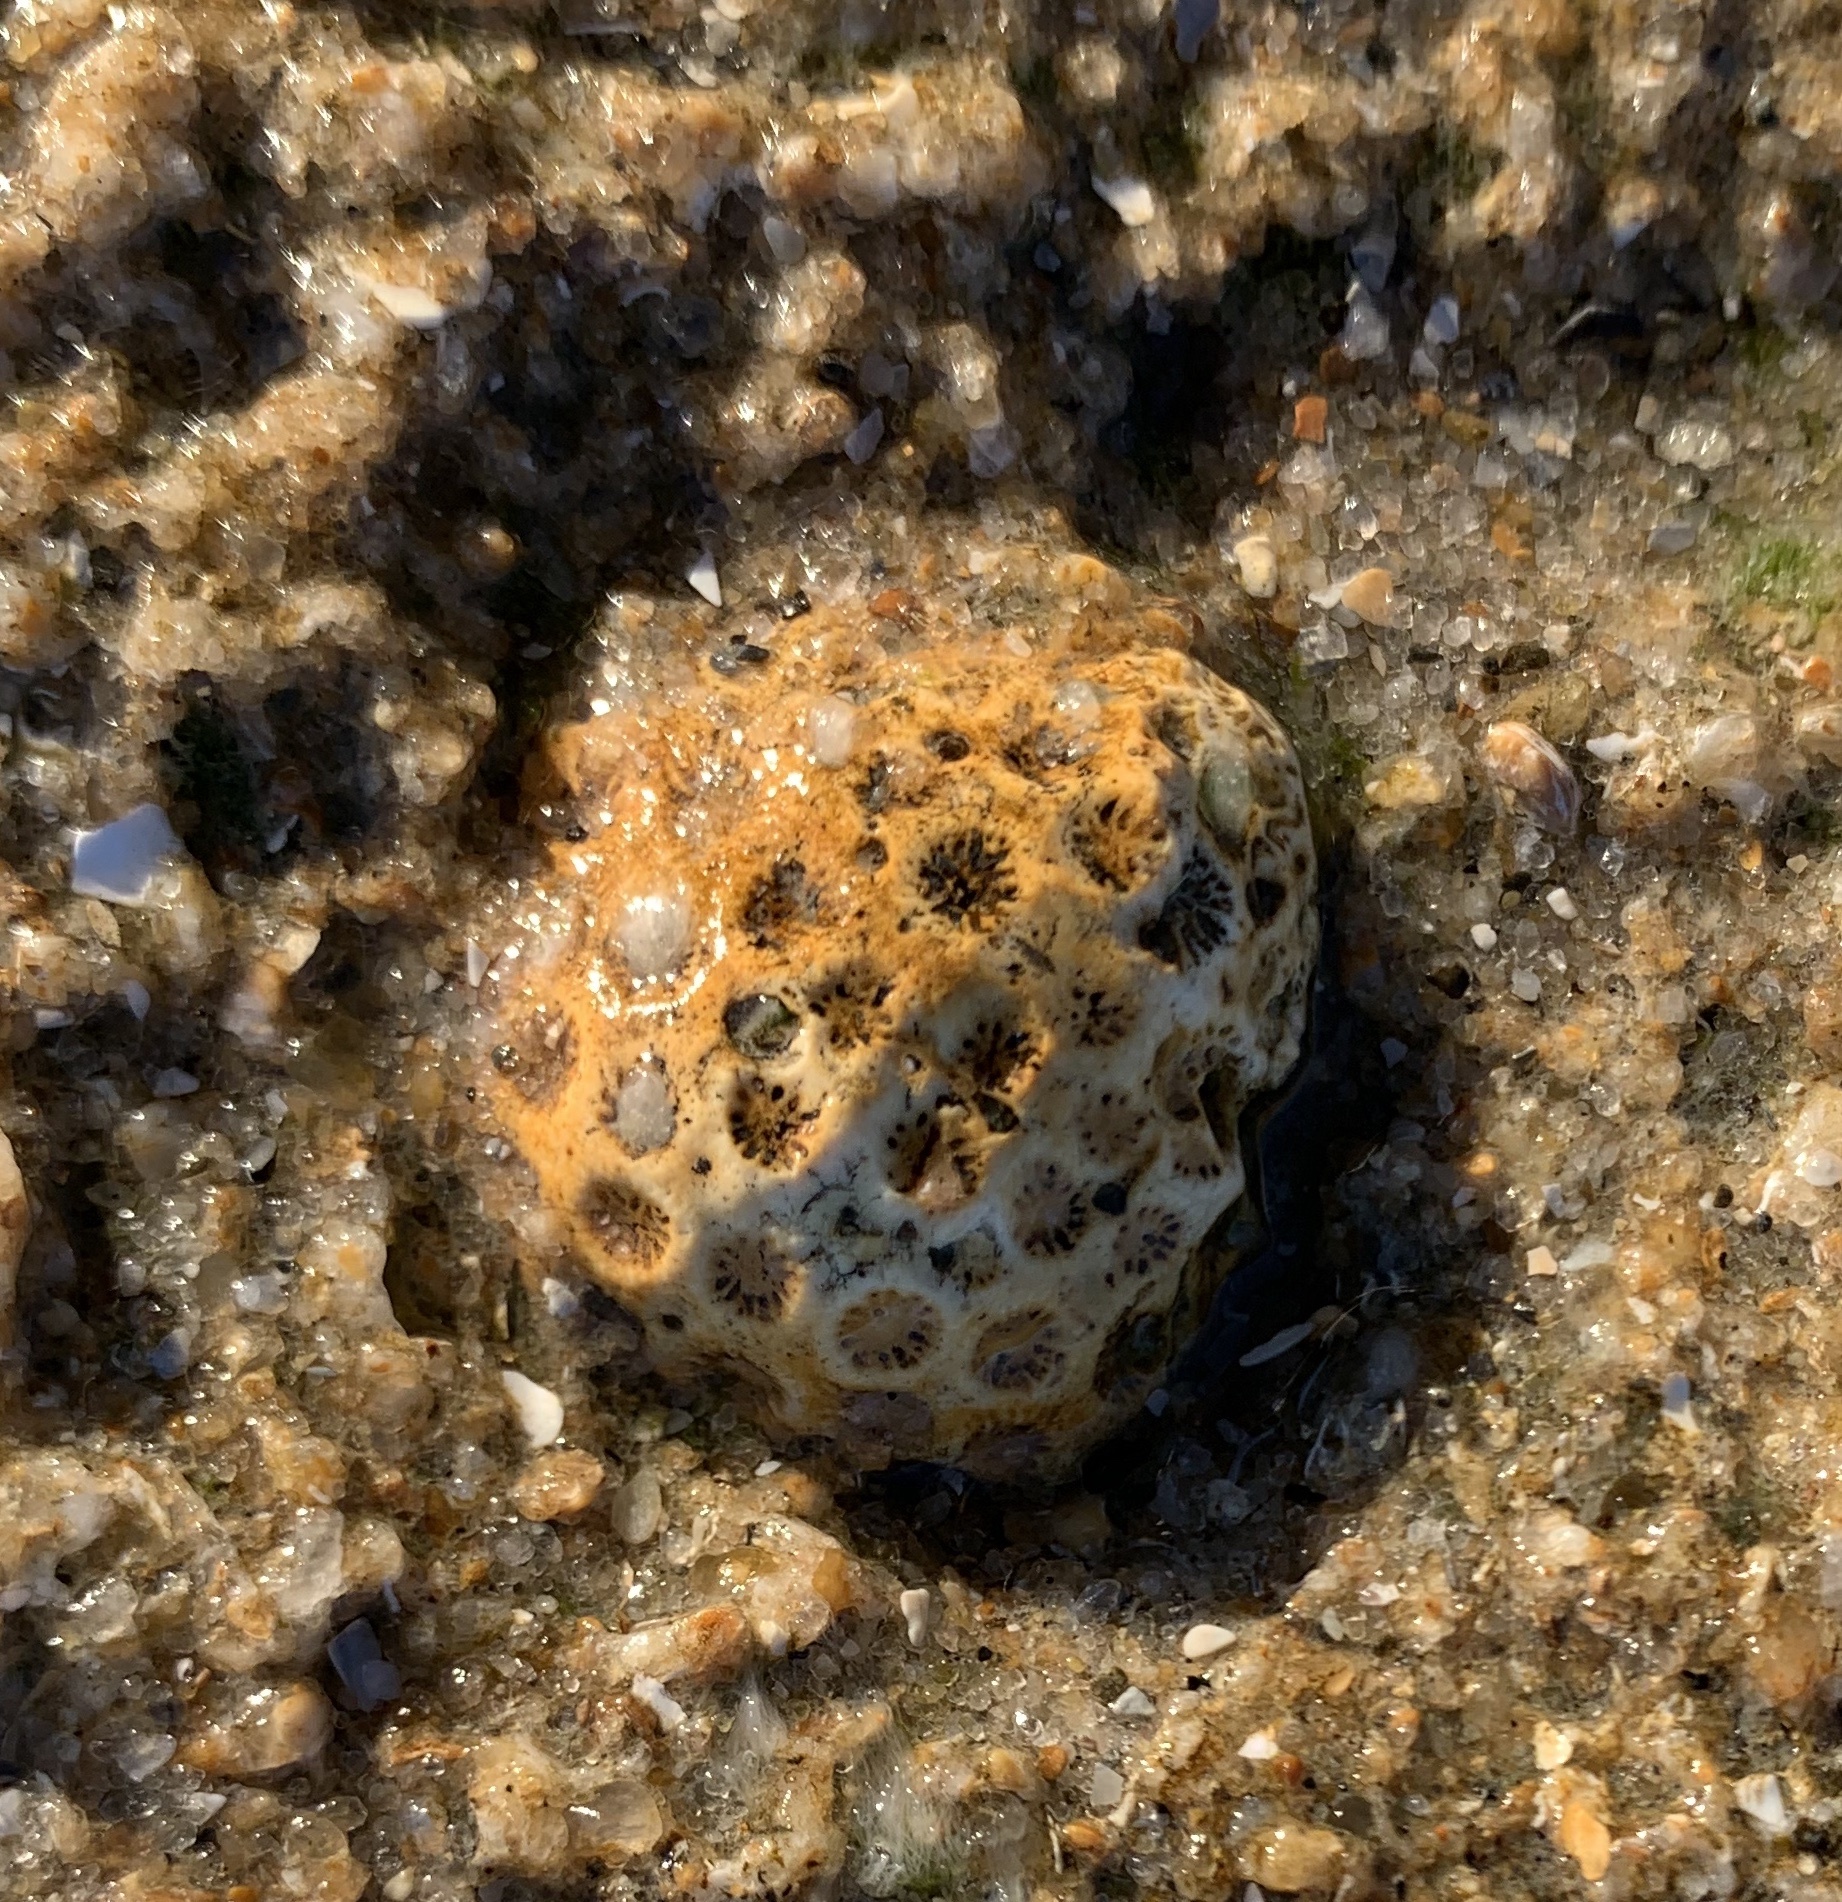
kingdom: Animalia
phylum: Cnidaria
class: Anthozoa
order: Scleractinia
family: Astrangiidae
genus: Astrangia
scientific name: Astrangia poculata
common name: Northern star coral
